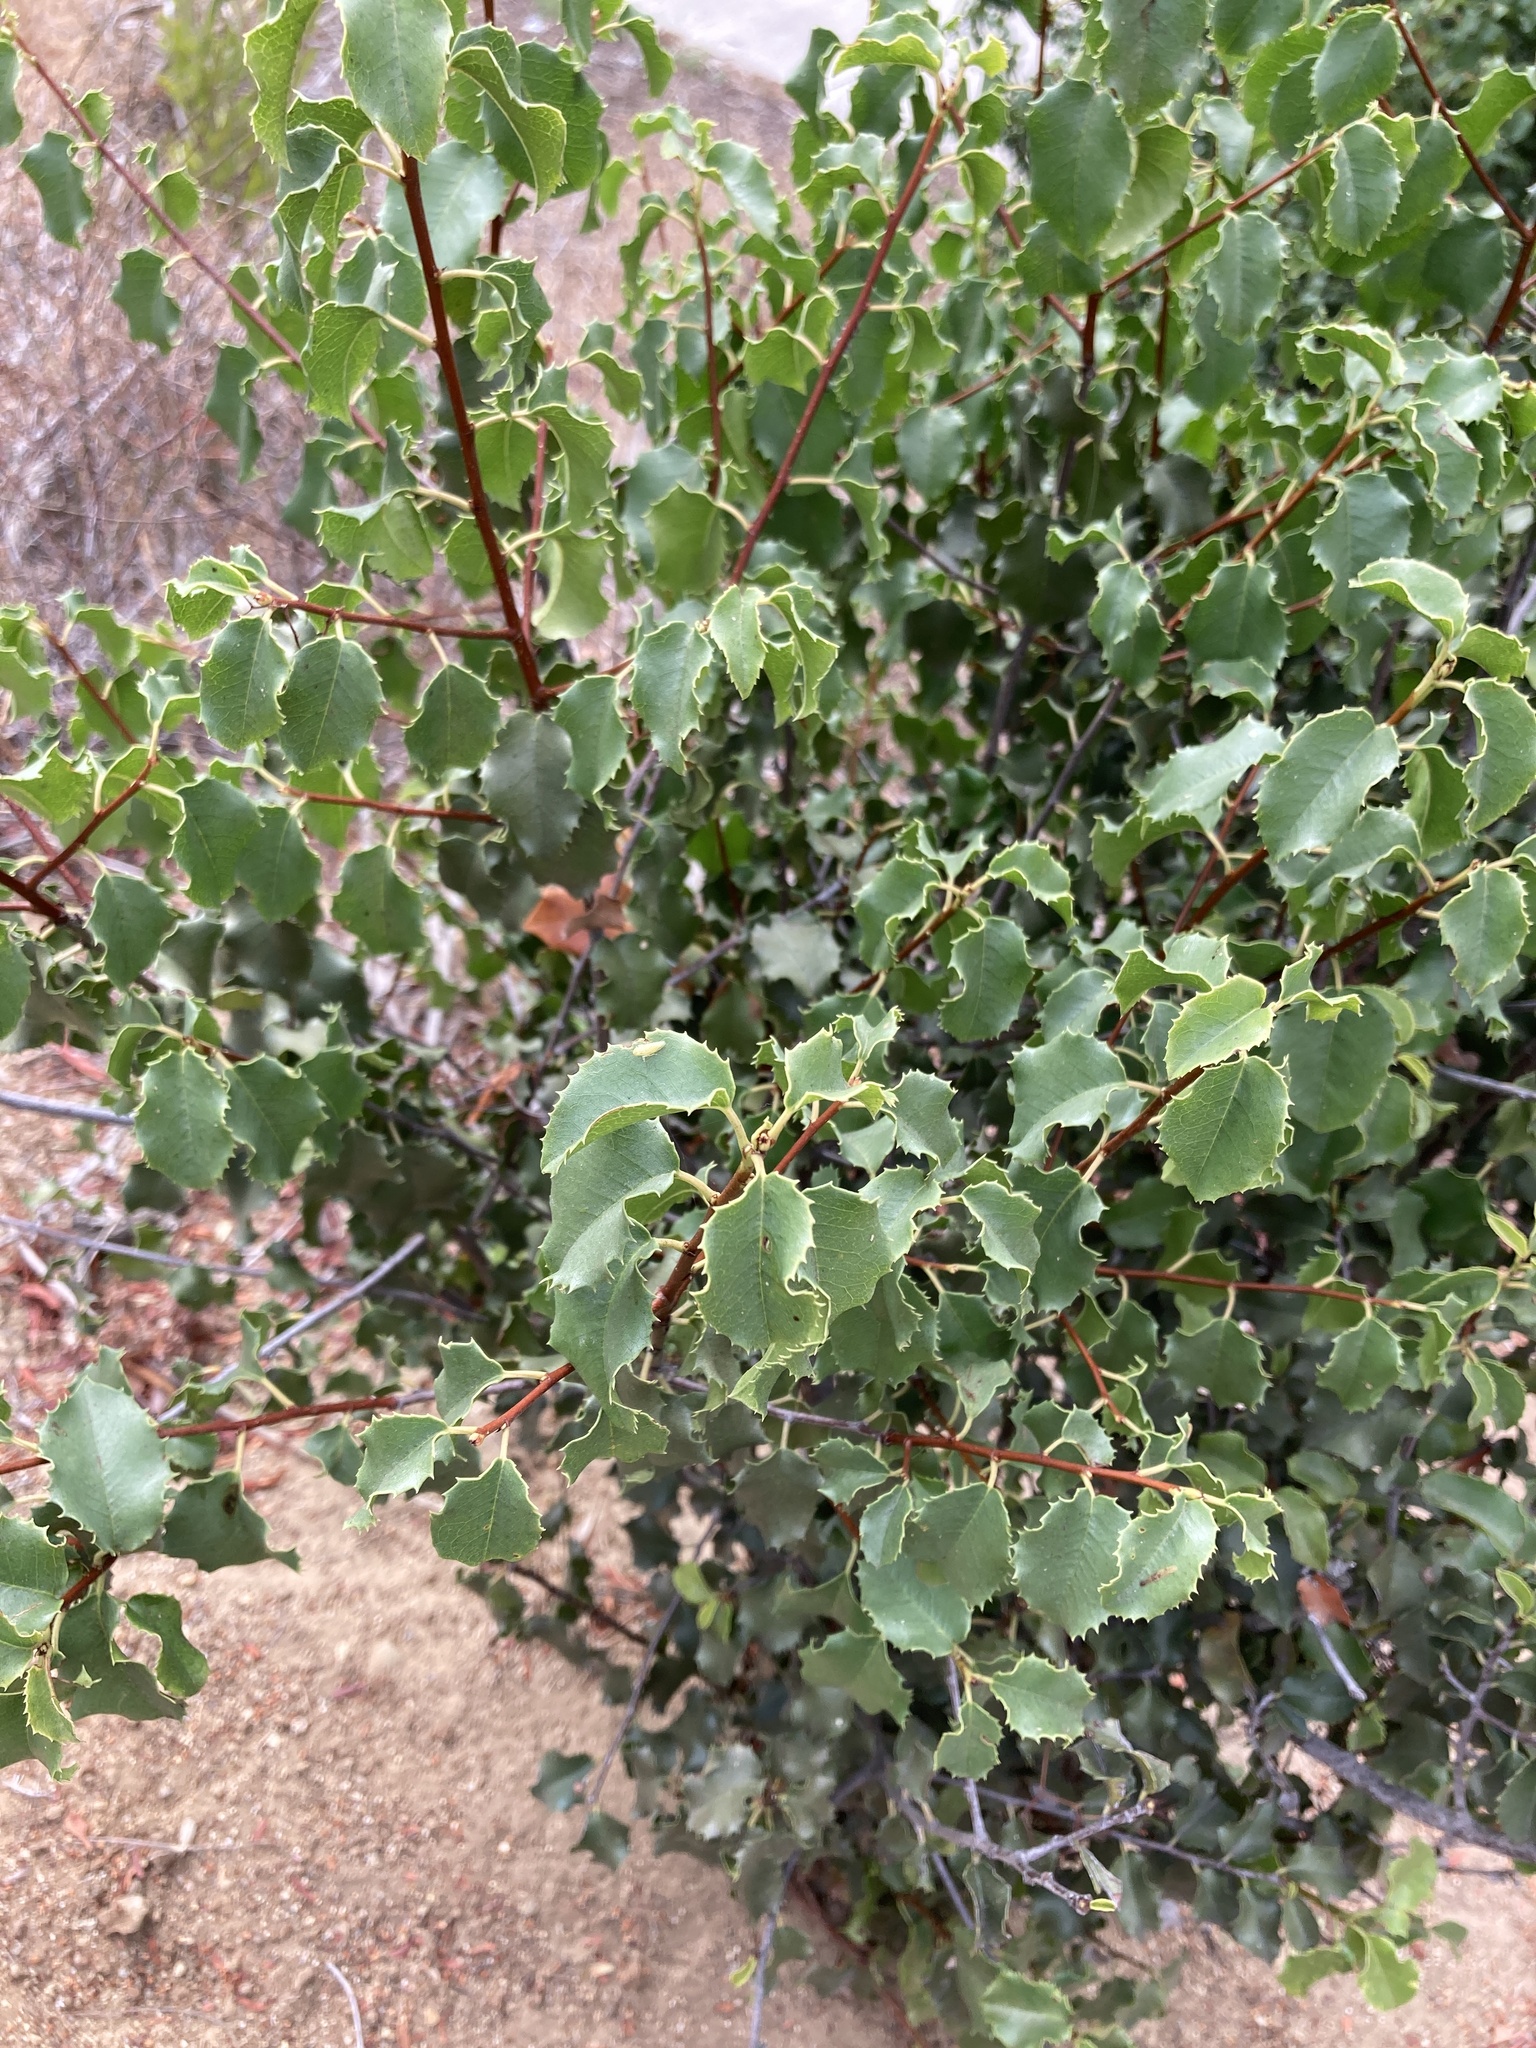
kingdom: Plantae
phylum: Tracheophyta
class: Magnoliopsida
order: Rosales
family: Rosaceae
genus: Prunus
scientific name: Prunus ilicifolia
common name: Hollyleaf cherry
